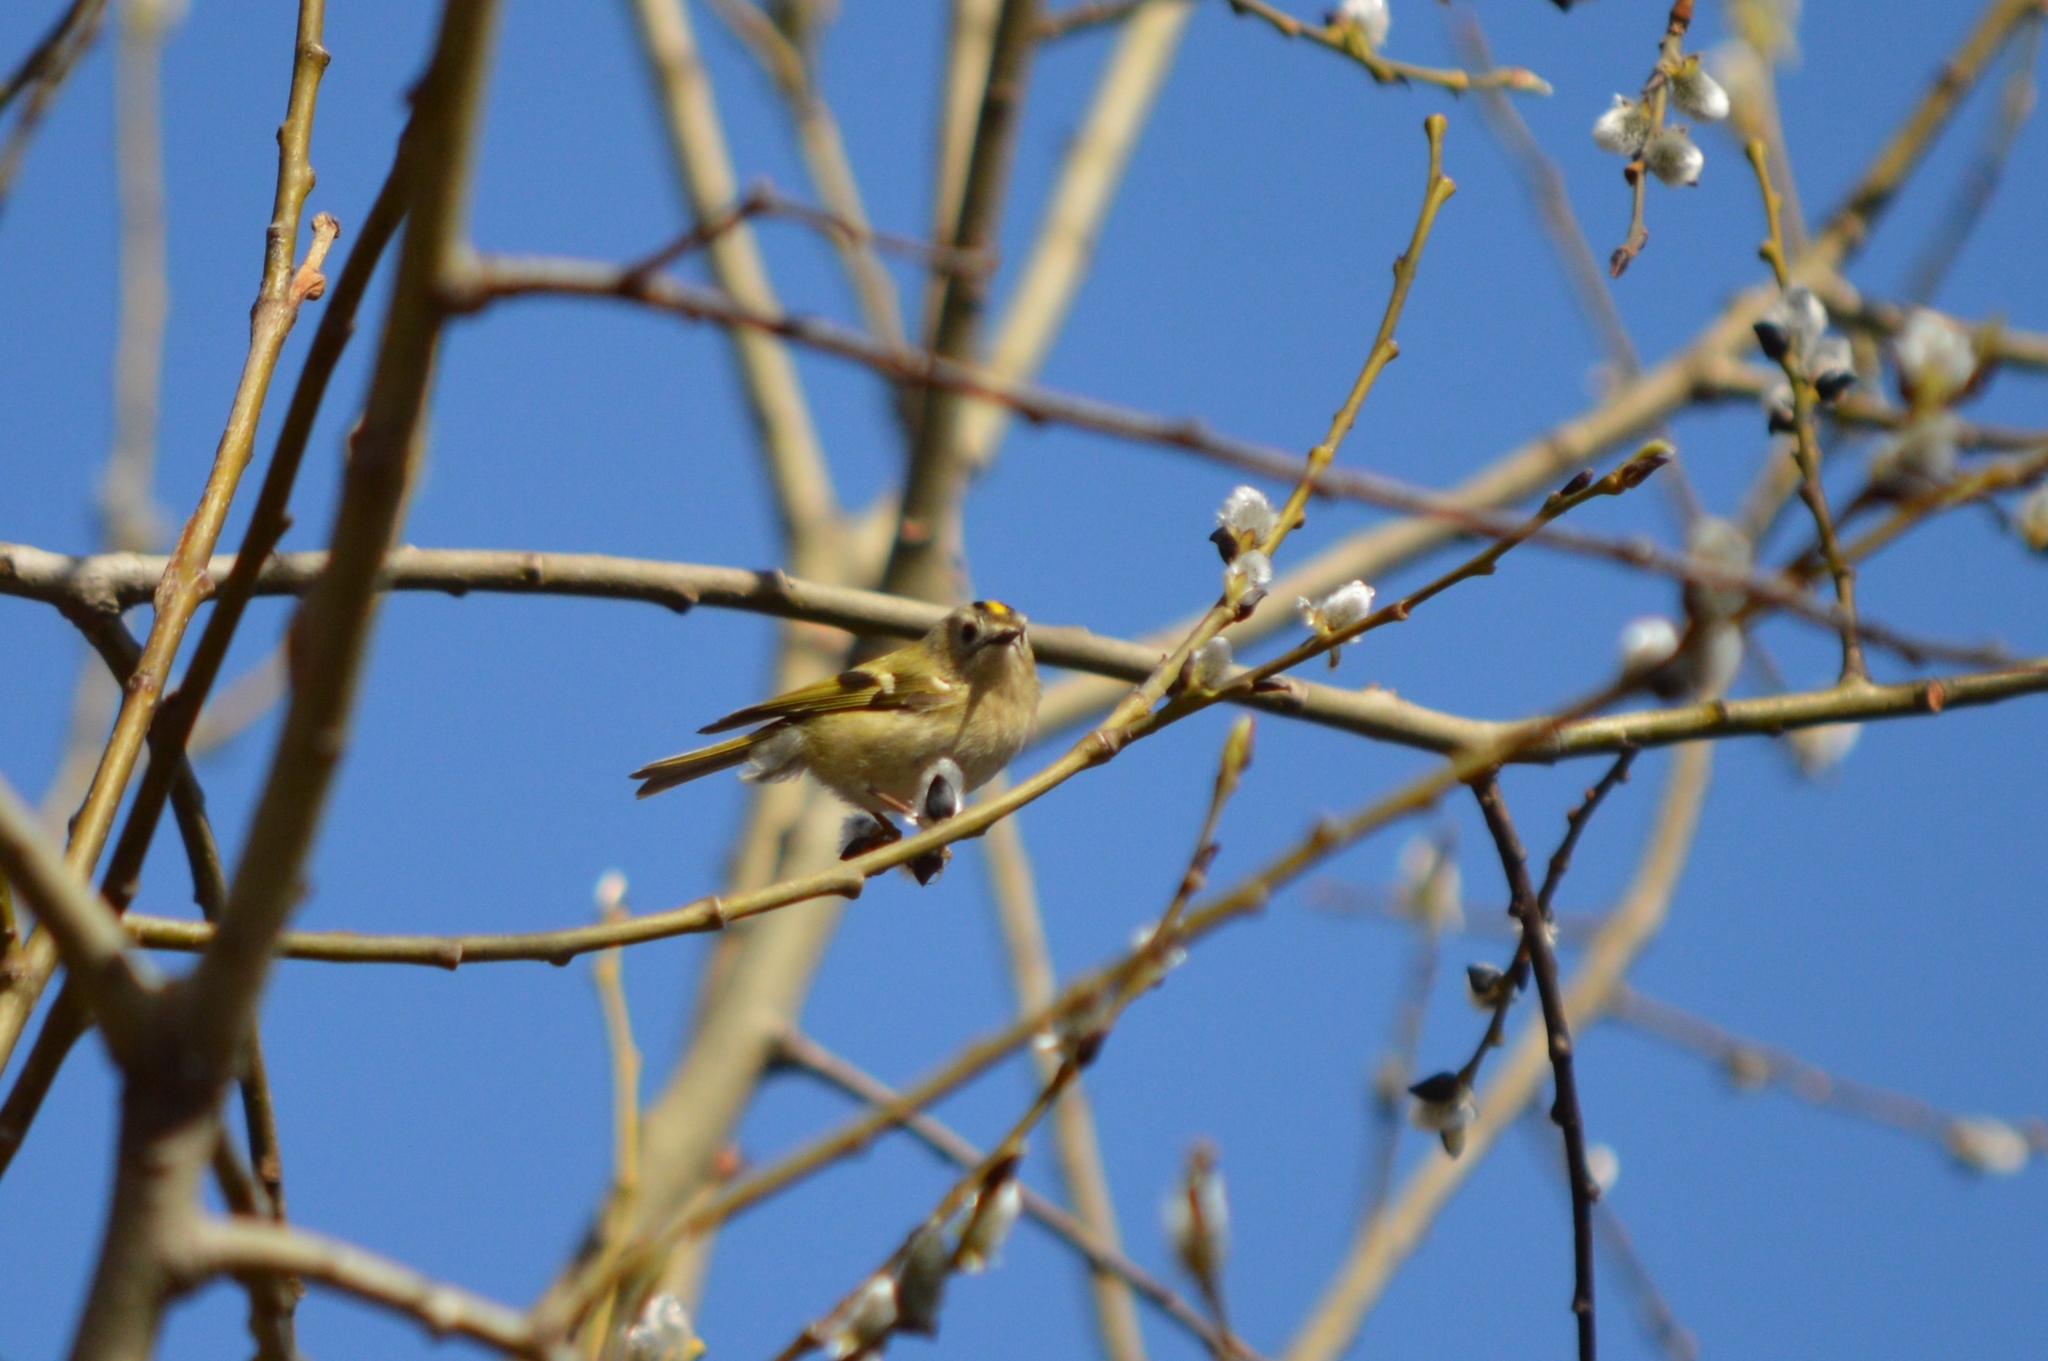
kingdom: Animalia
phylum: Chordata
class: Aves
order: Passeriformes
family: Regulidae
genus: Regulus
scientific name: Regulus regulus
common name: Goldcrest
